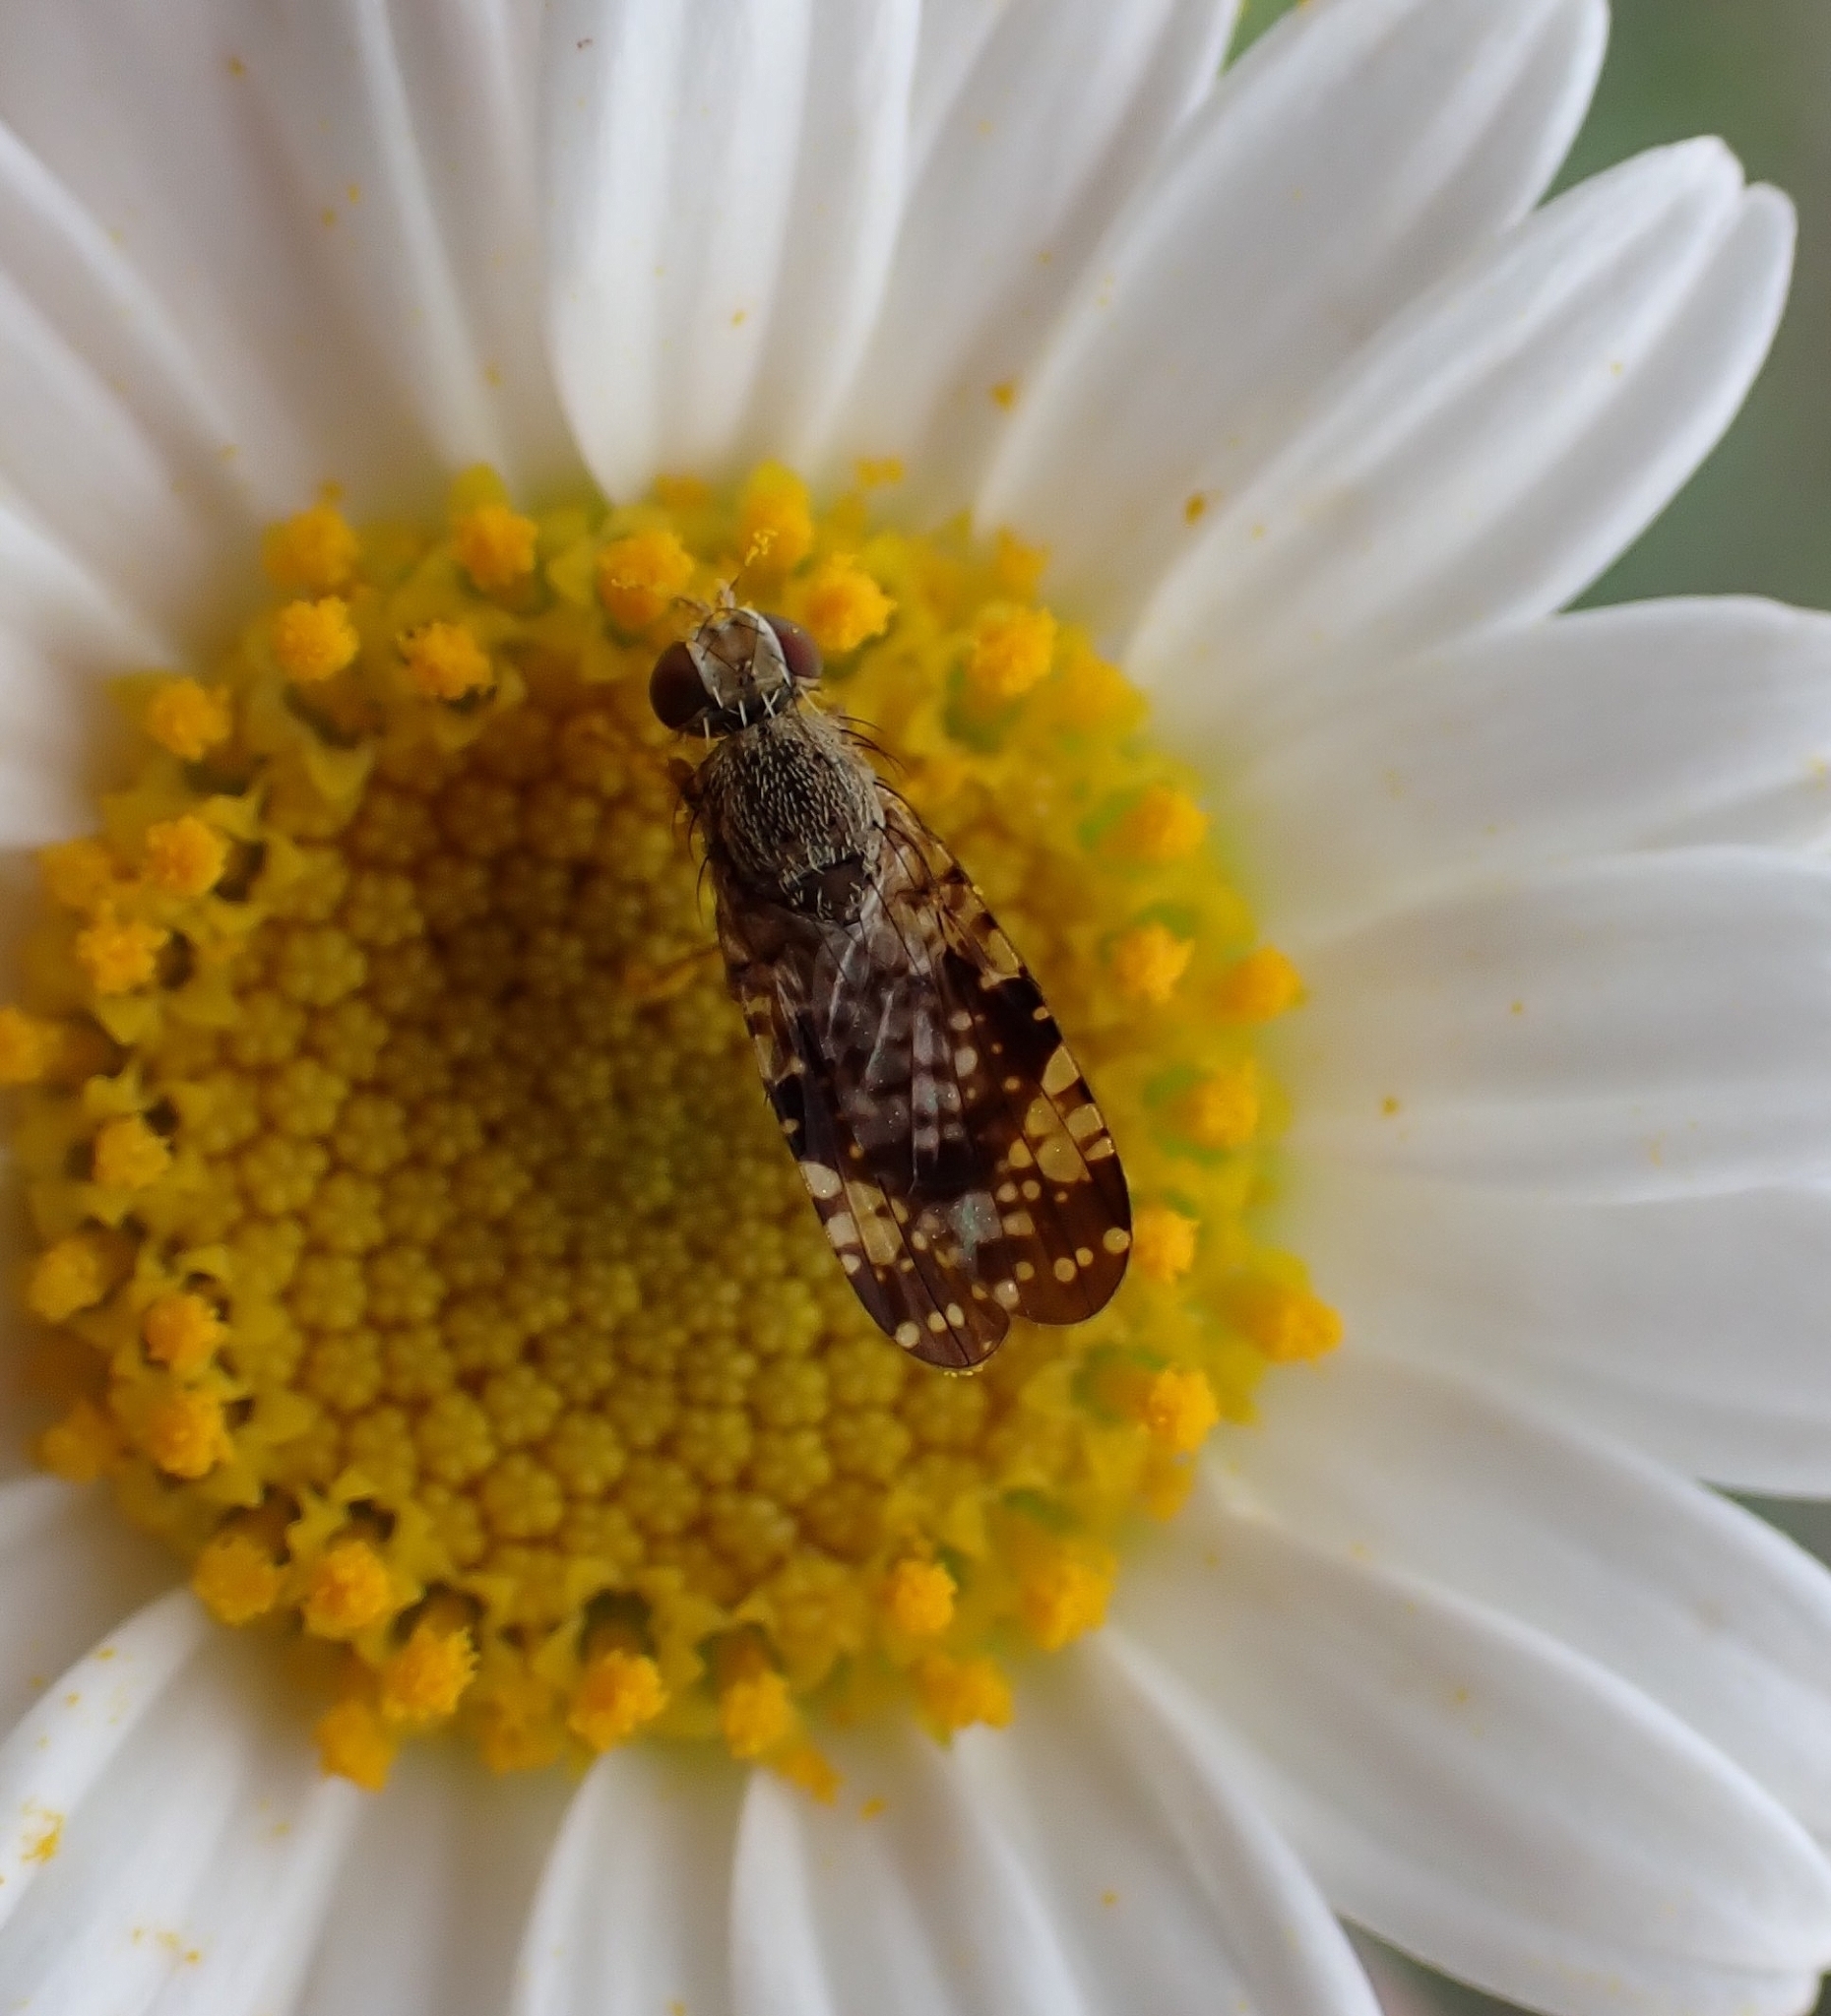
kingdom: Animalia
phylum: Arthropoda
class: Insecta
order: Diptera
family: Tephritidae
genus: Campiglossa
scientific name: Campiglossa reticulata
